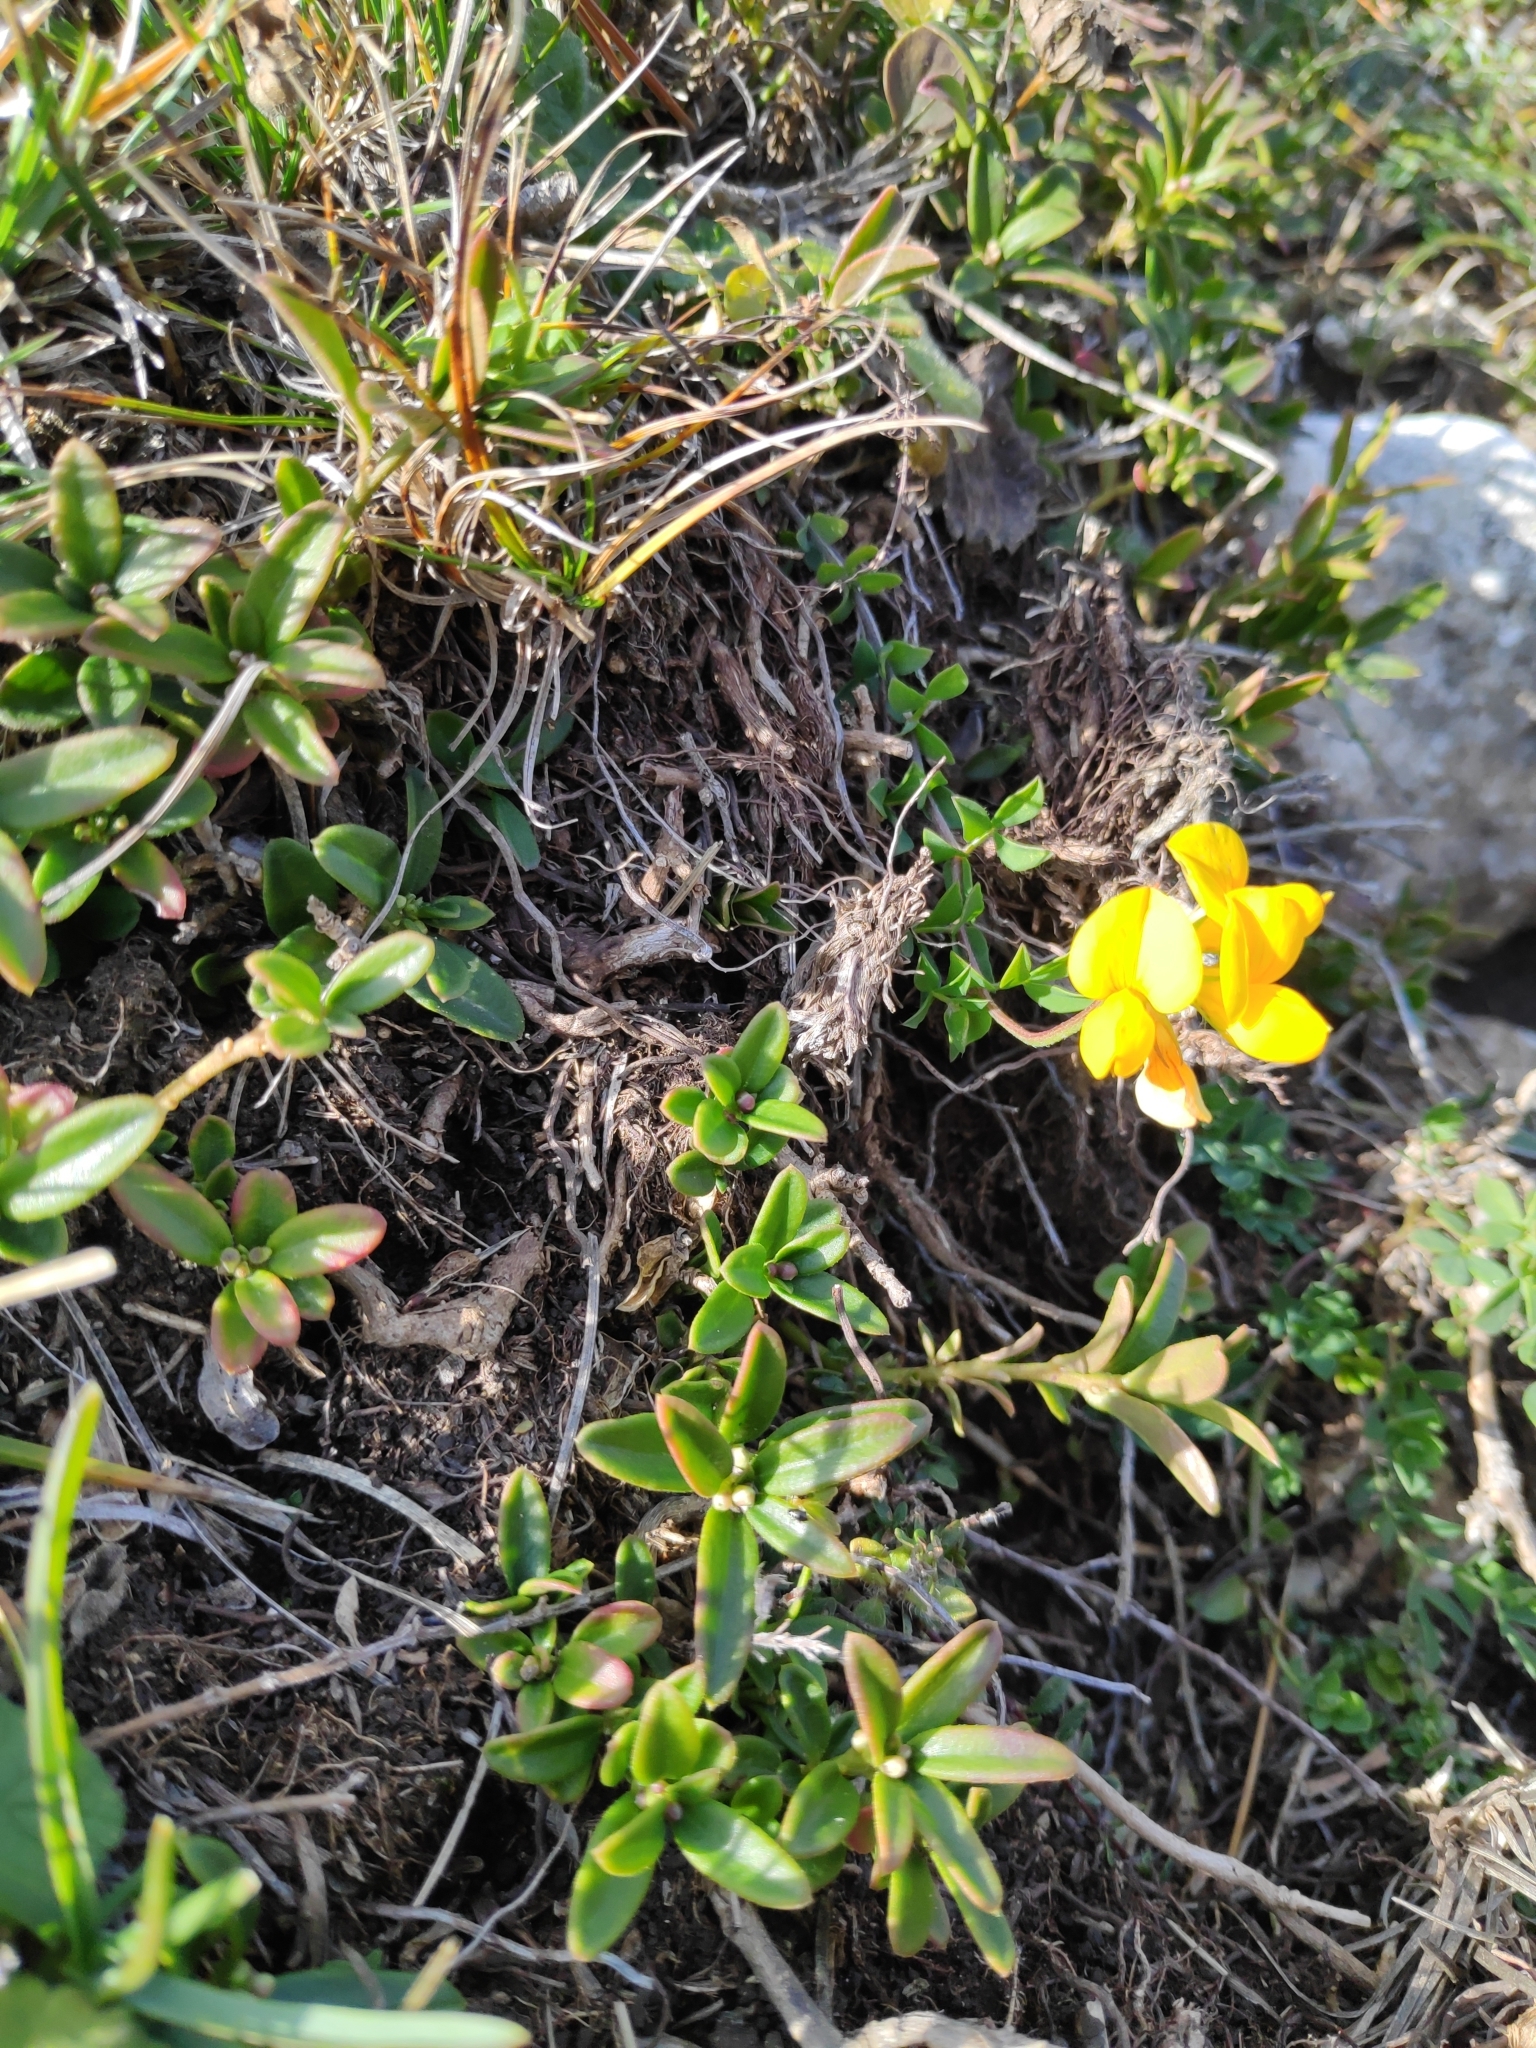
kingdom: Plantae
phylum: Tracheophyta
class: Magnoliopsida
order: Fabales
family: Fabaceae
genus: Lotus
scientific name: Lotus corniculatus
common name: Common bird's-foot-trefoil
